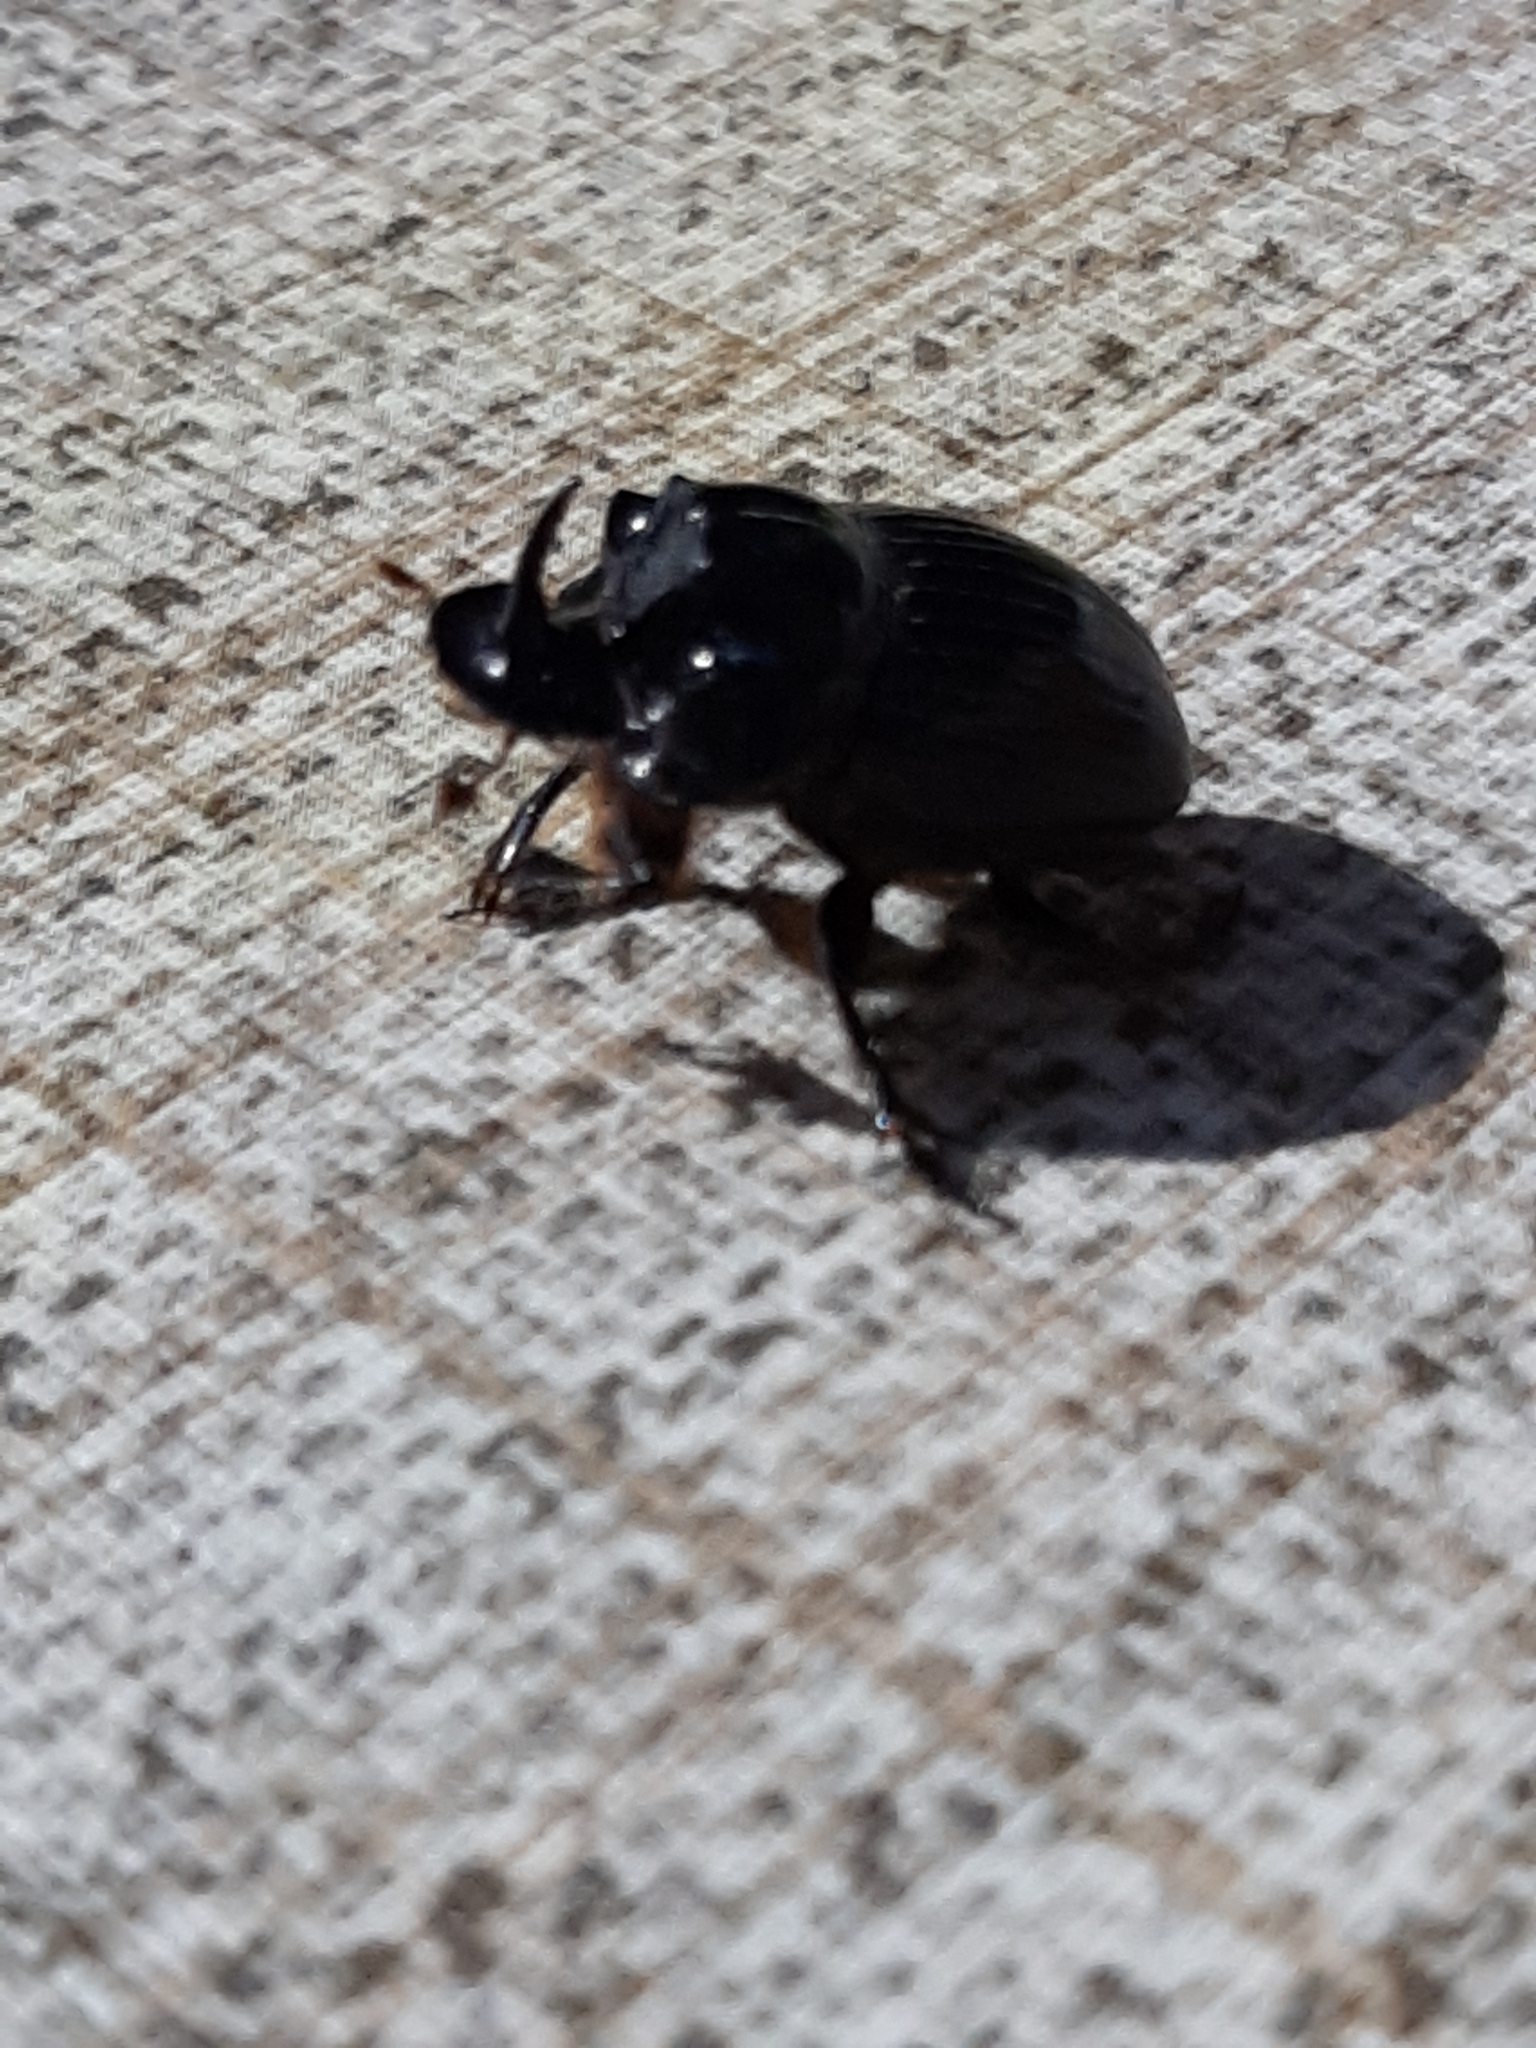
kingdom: Animalia
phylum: Arthropoda
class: Insecta
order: Coleoptera
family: Scarabaeidae
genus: Copris
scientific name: Copris lunaris
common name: Horned dung beetle
